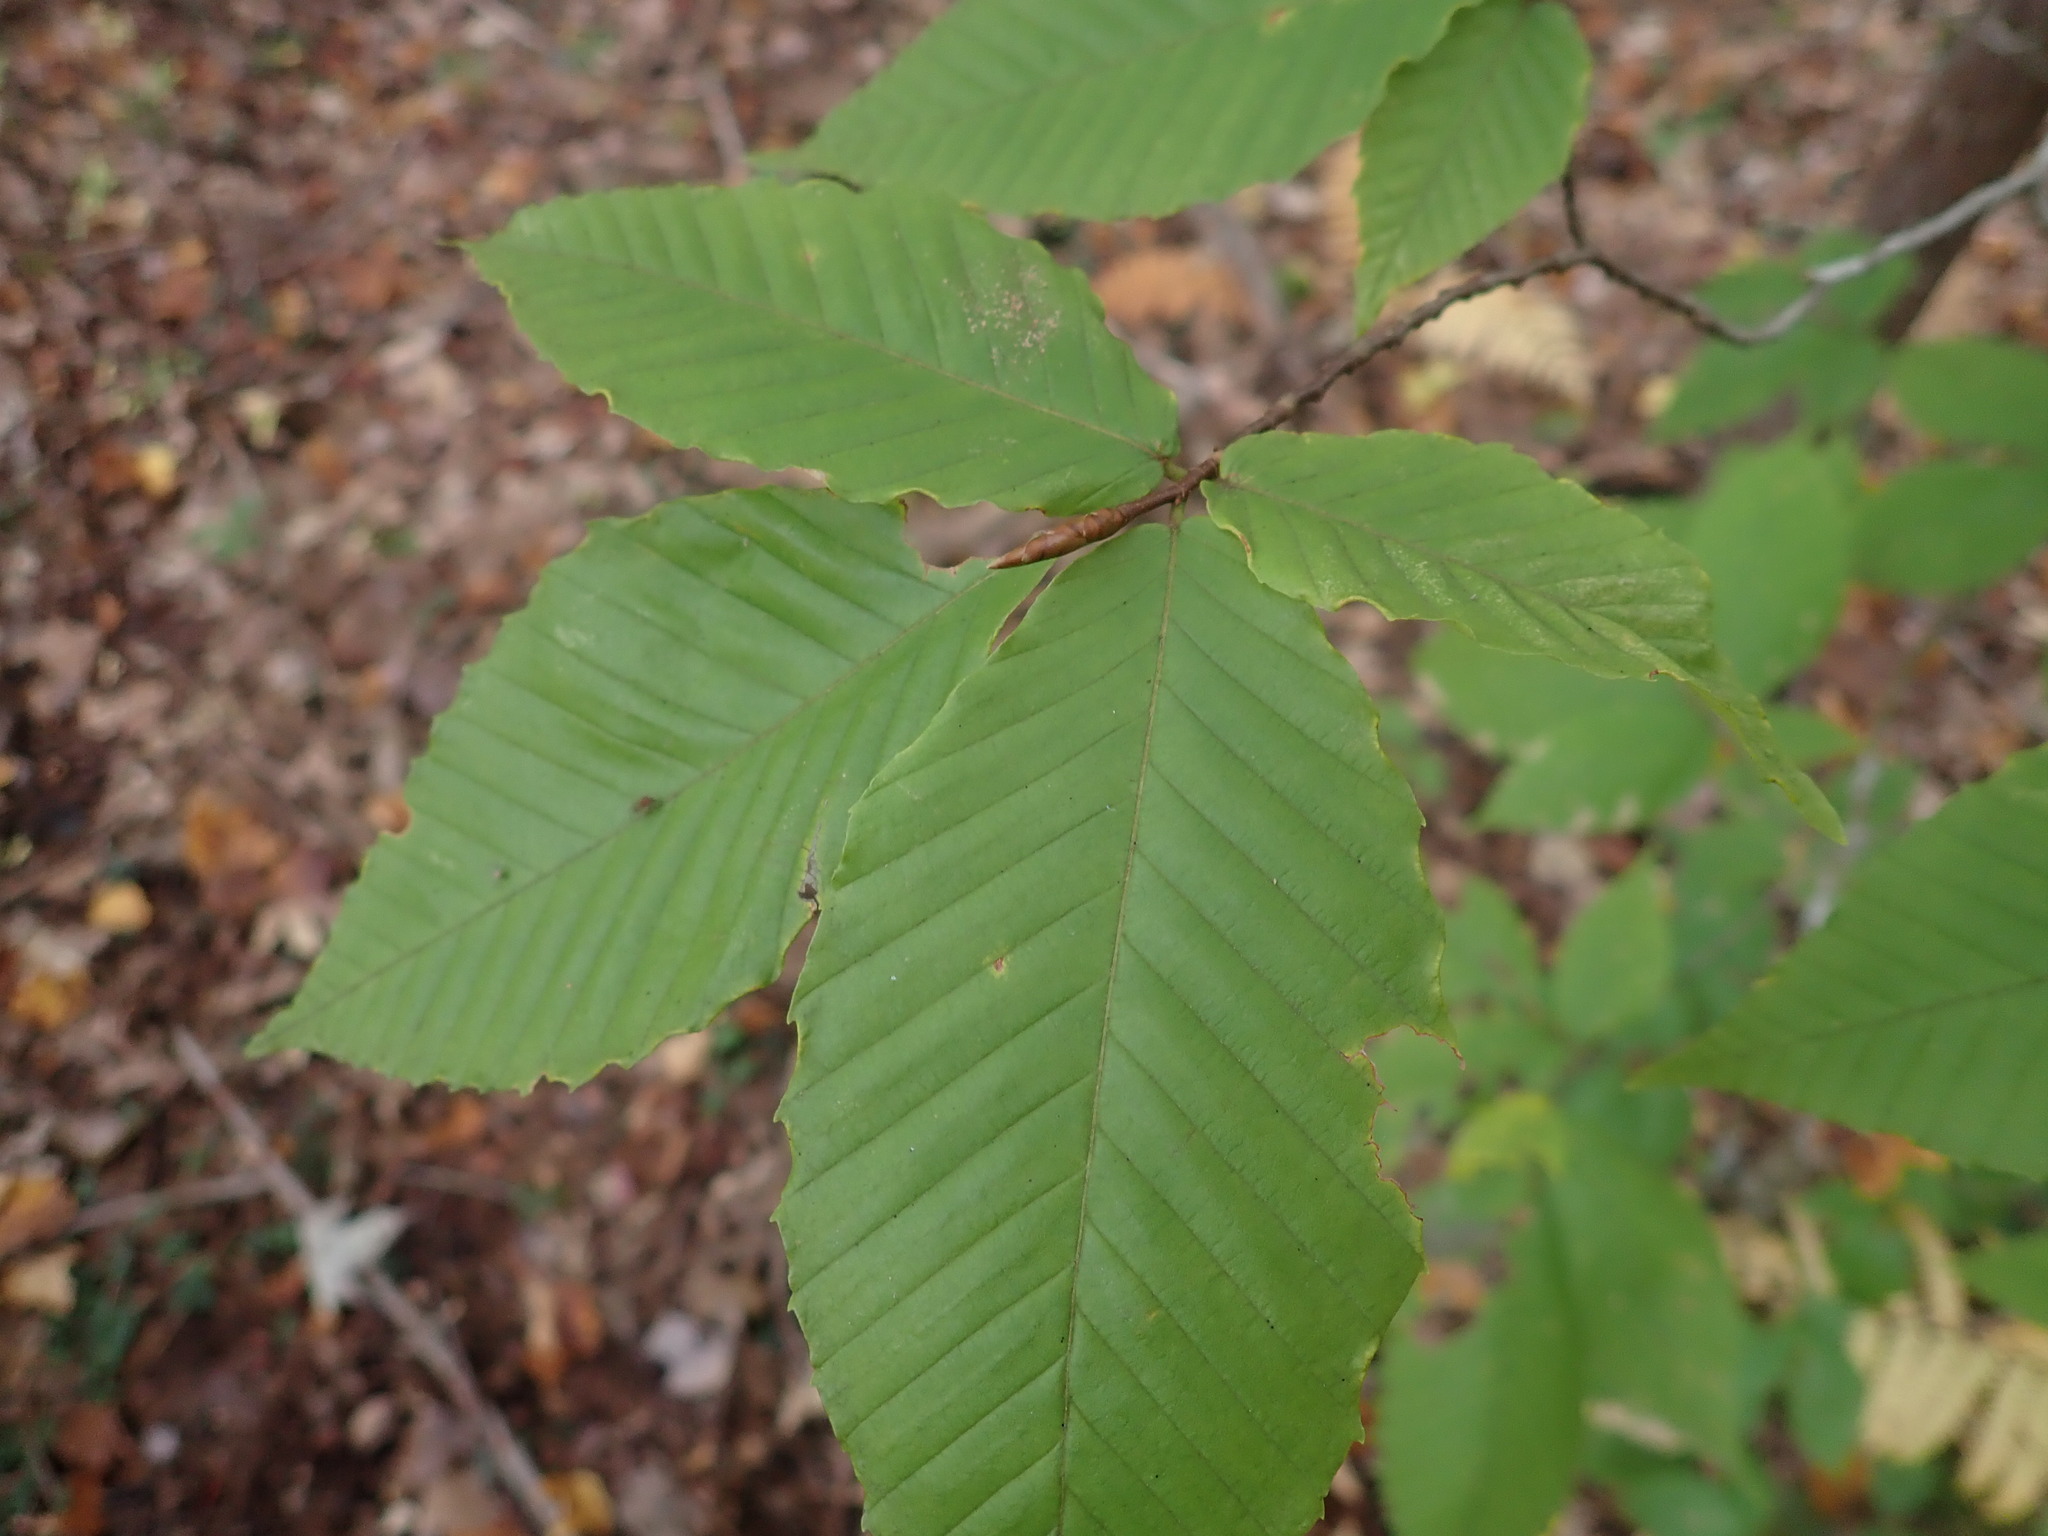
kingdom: Plantae
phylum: Tracheophyta
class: Magnoliopsida
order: Fagales
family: Fagaceae
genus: Fagus
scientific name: Fagus grandifolia
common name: American beech
